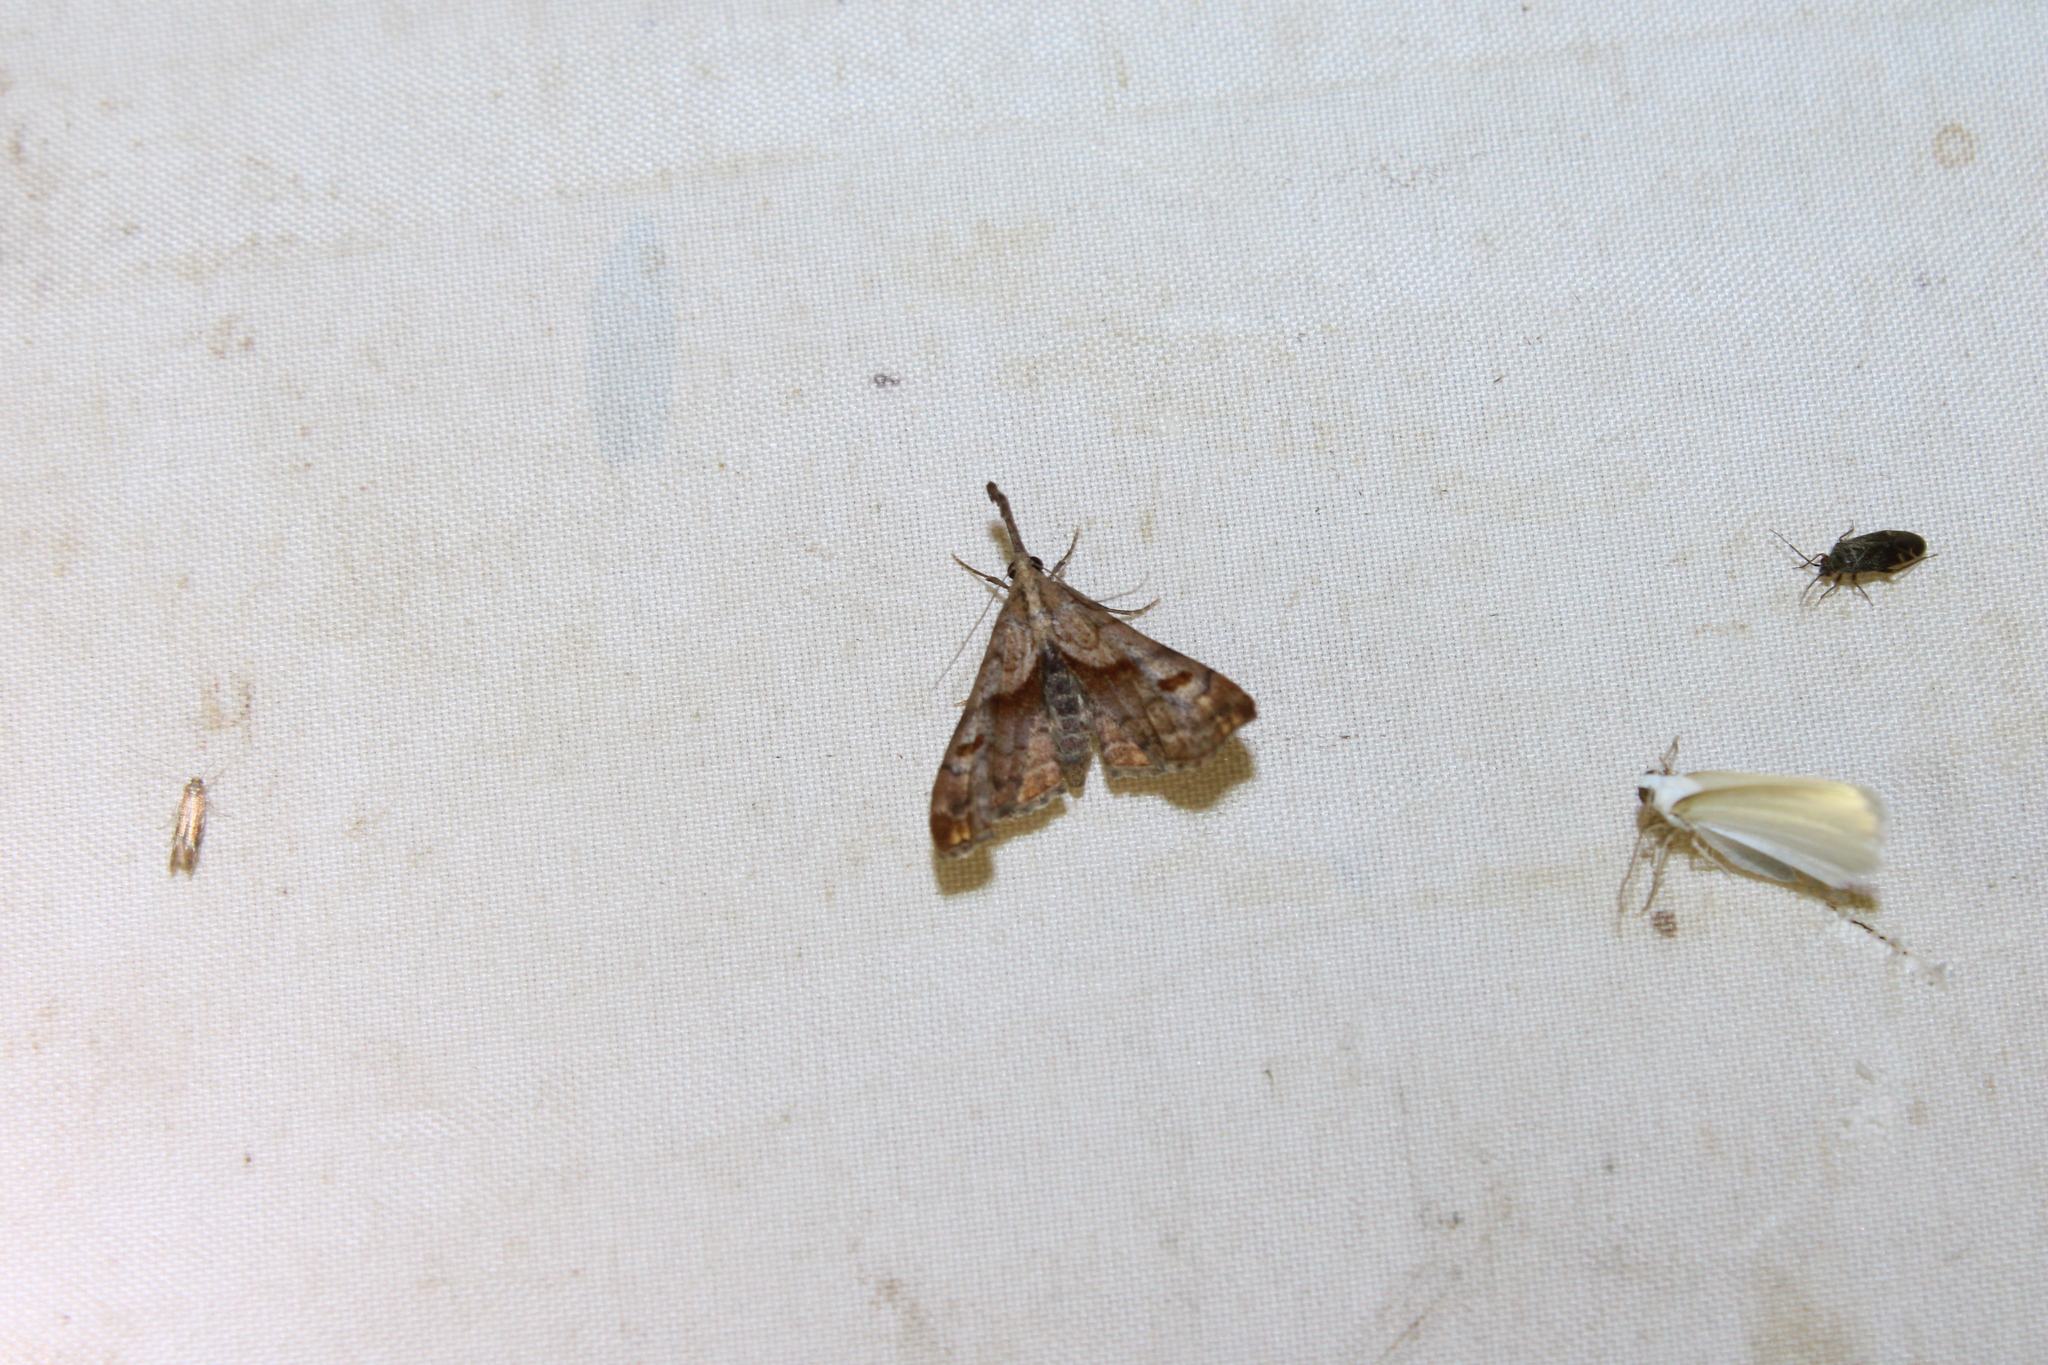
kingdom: Animalia
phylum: Arthropoda
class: Insecta
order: Lepidoptera
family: Erebidae
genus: Palthis
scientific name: Palthis angulalis
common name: Dark-spotted palthis moth
